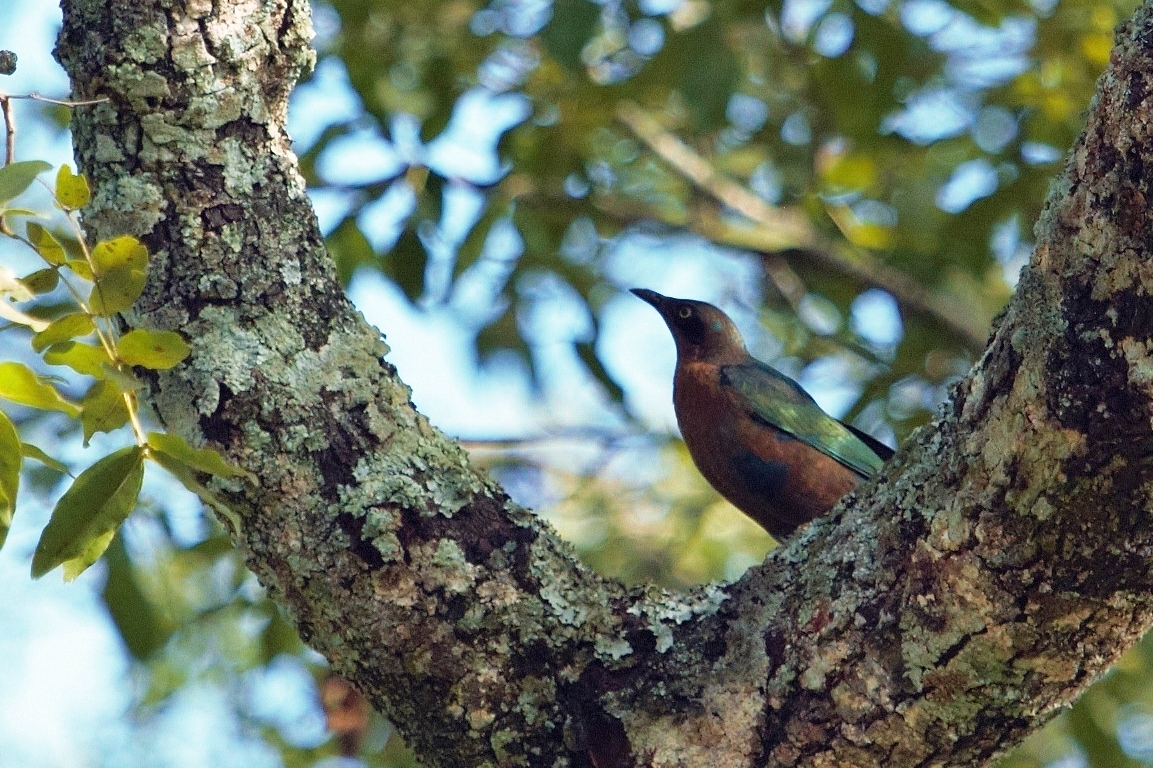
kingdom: Animalia
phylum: Chordata
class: Aves
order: Passeriformes
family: Sturnidae
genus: Lamprotornis
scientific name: Lamprotornis chloropterus
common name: Lesser blue-eared starling
